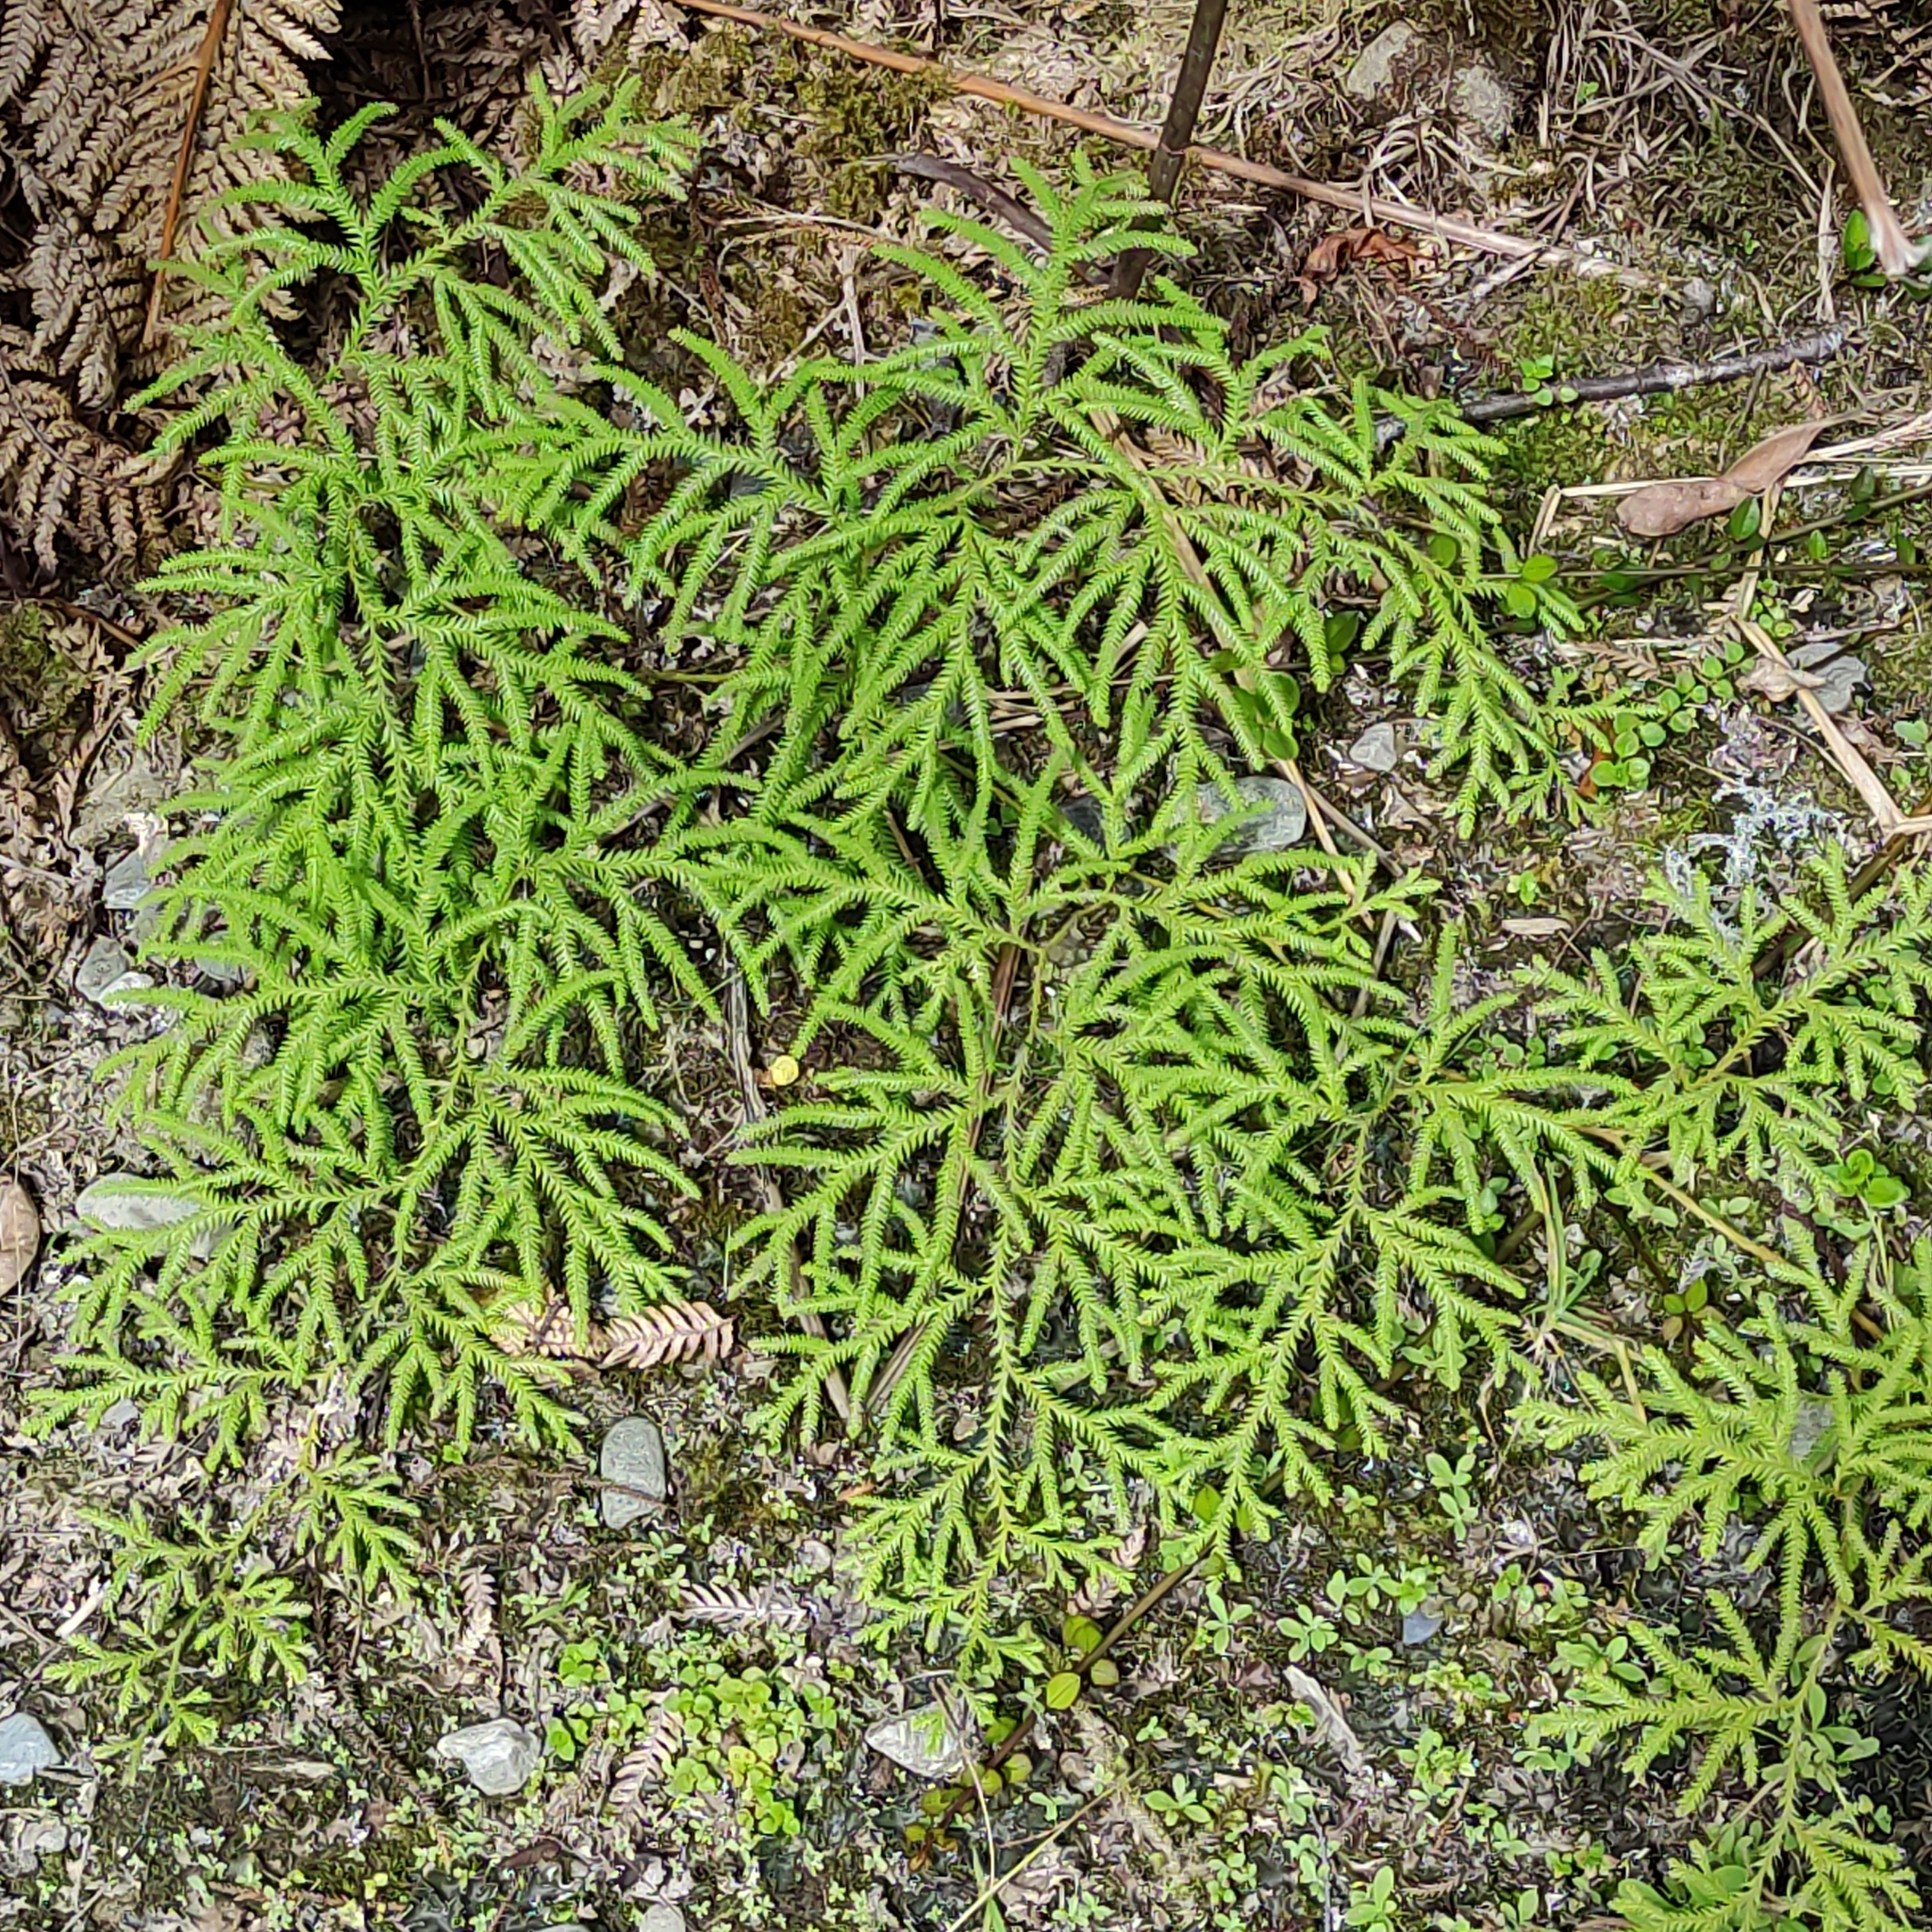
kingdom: Plantae
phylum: Tracheophyta
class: Lycopodiopsida
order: Lycopodiales
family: Lycopodiaceae
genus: Lycopodium
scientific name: Lycopodium volubile
